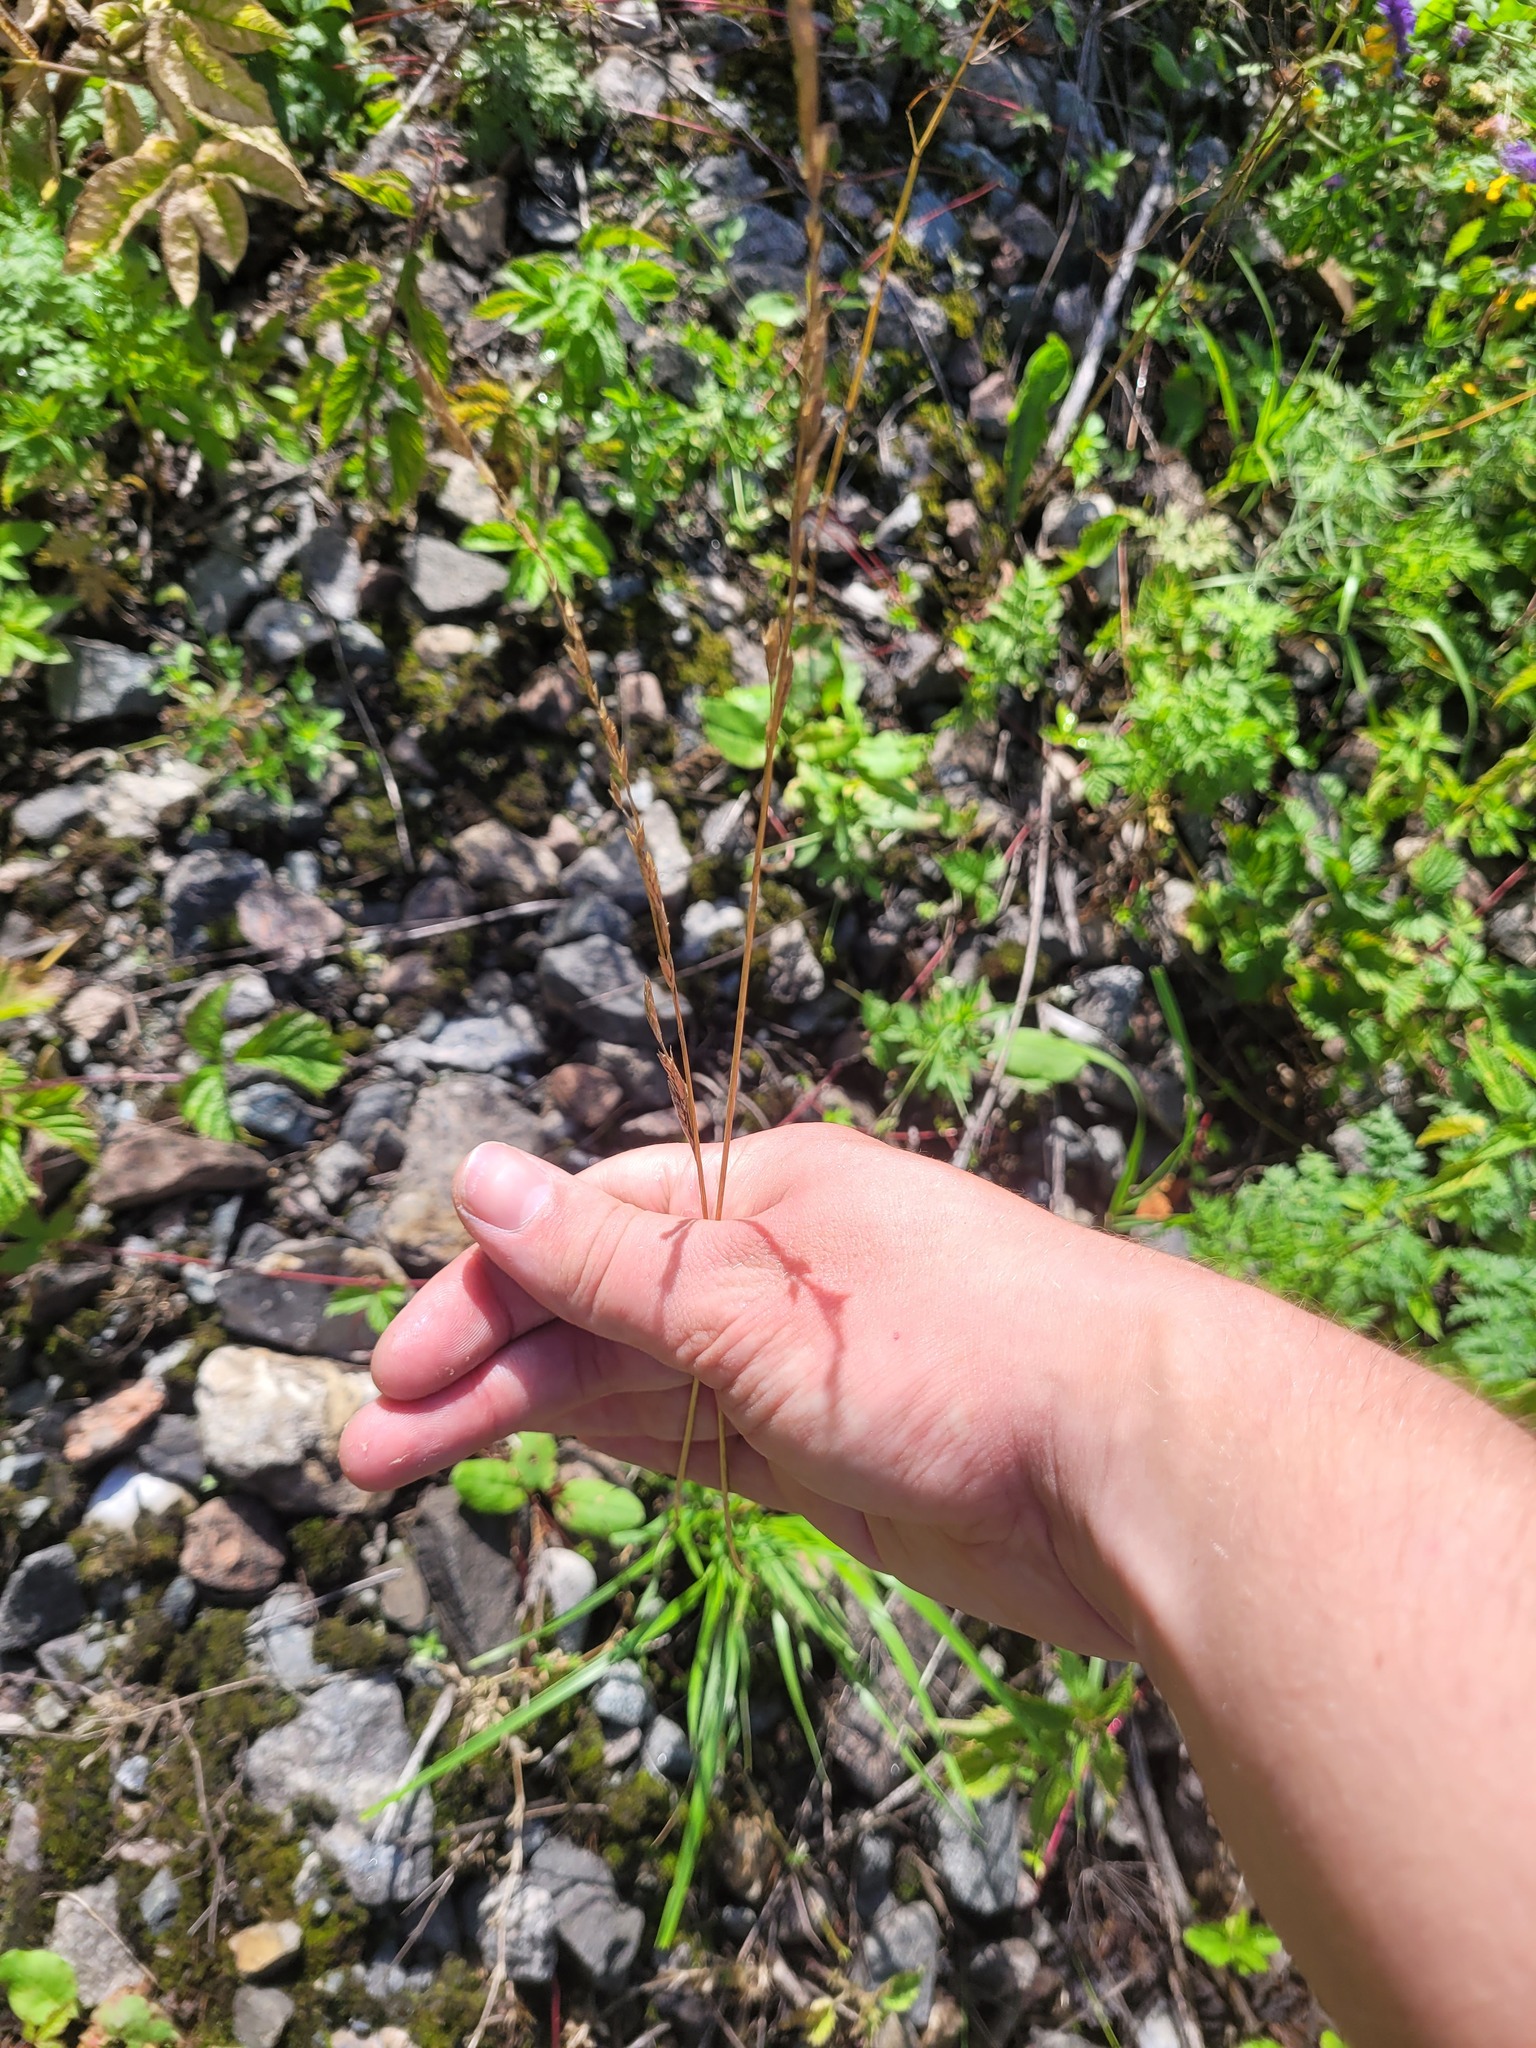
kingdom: Plantae
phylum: Tracheophyta
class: Liliopsida
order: Poales
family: Poaceae
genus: Lolium
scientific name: Lolium pratense
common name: Dover grass
